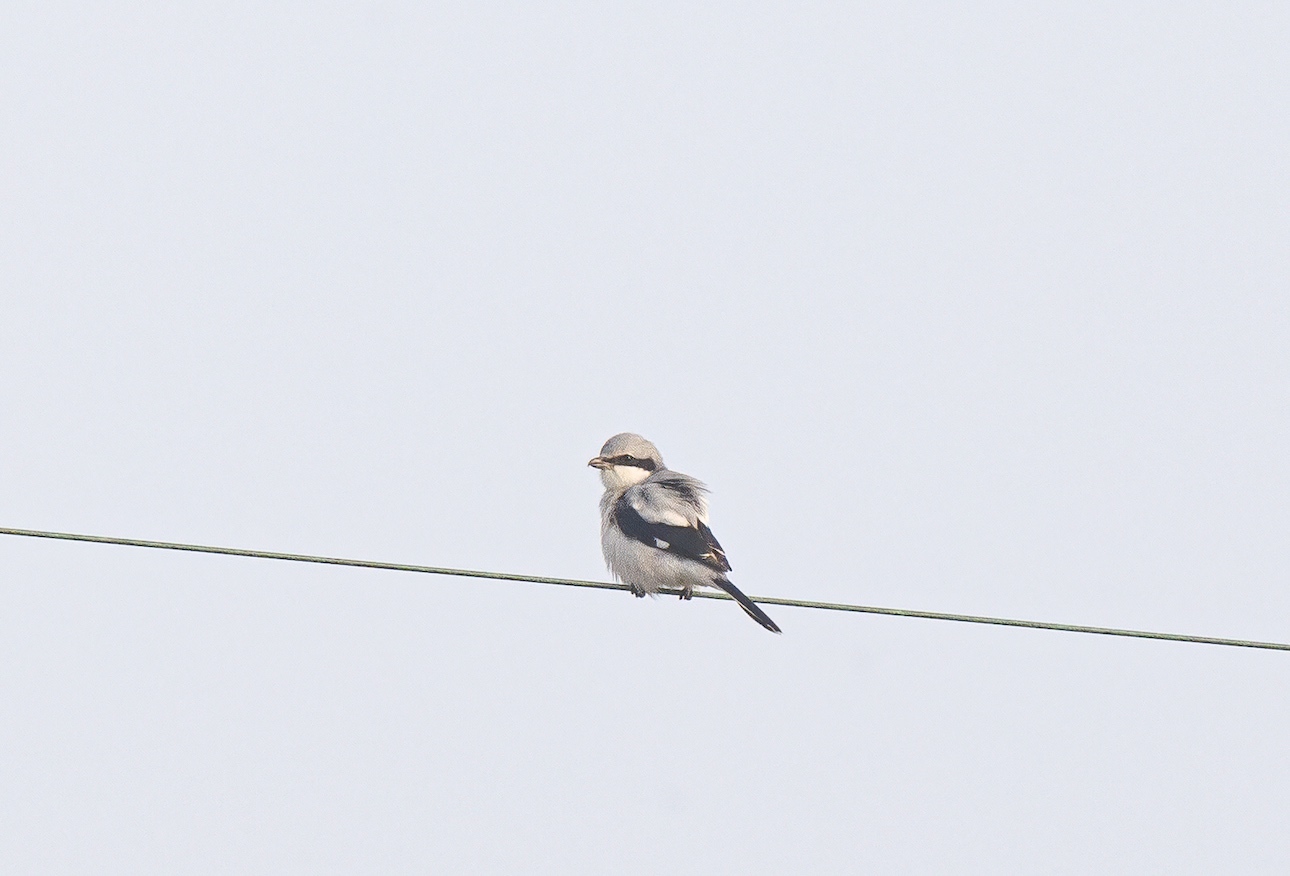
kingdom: Animalia
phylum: Chordata
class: Aves
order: Passeriformes
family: Laniidae
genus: Lanius
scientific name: Lanius excubitor
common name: Great grey shrike
